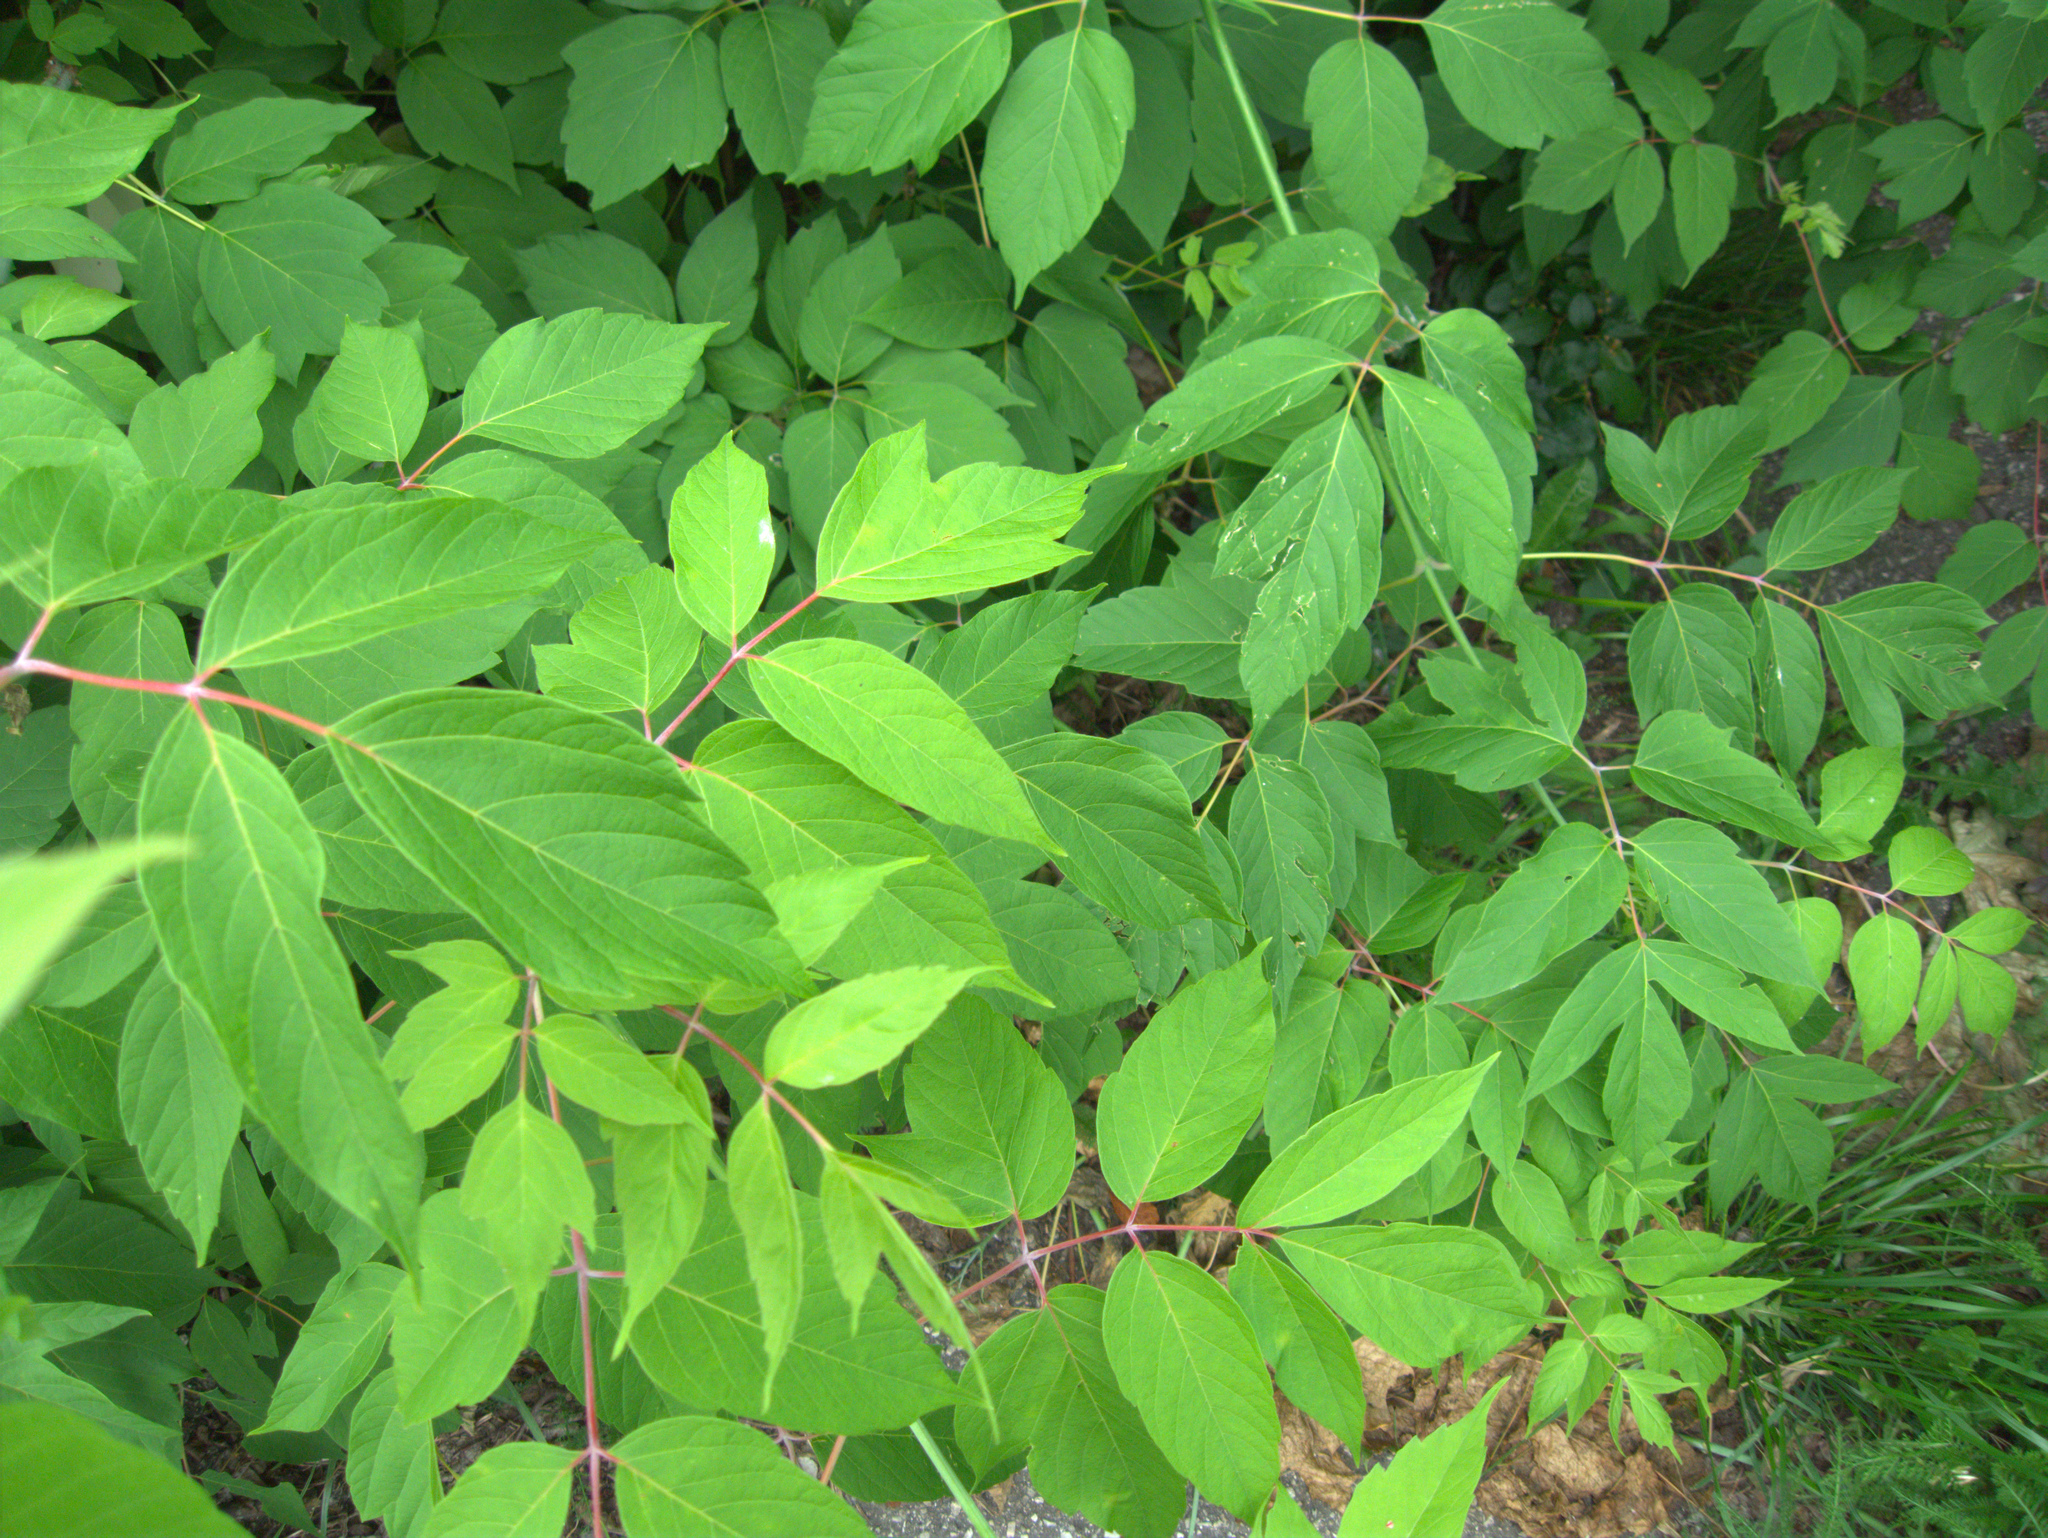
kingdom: Plantae
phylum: Tracheophyta
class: Magnoliopsida
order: Sapindales
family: Sapindaceae
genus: Acer
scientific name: Acer negundo
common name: Ashleaf maple
